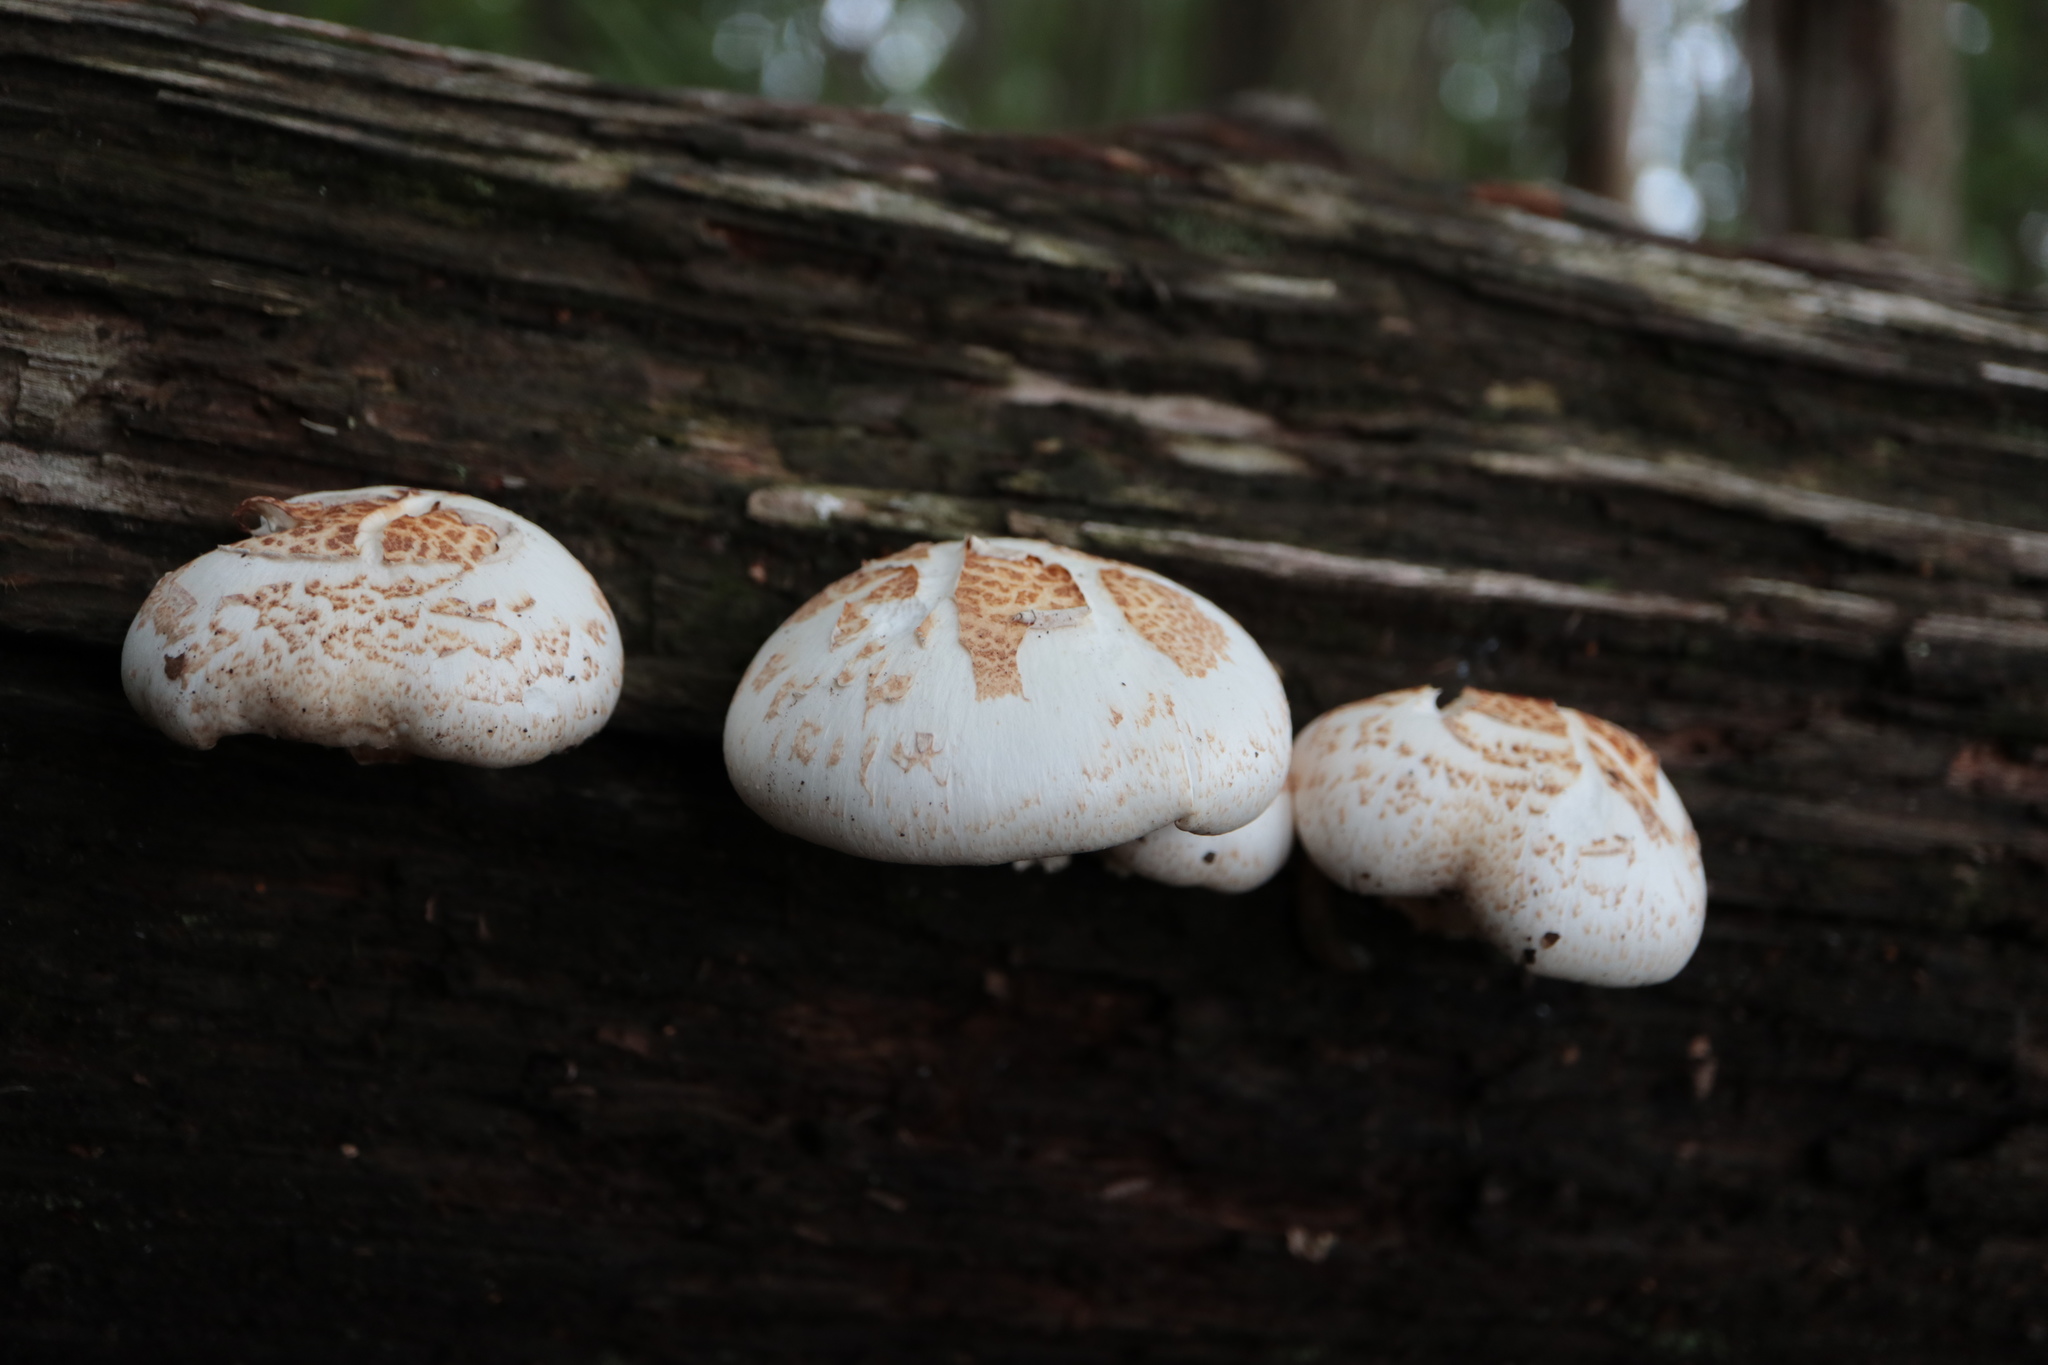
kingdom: Fungi
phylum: Basidiomycota
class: Agaricomycetes
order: Gloeophyllales
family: Gloeophyllaceae
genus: Neolentinus
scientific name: Neolentinus lepideus
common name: Scaly sawgill
